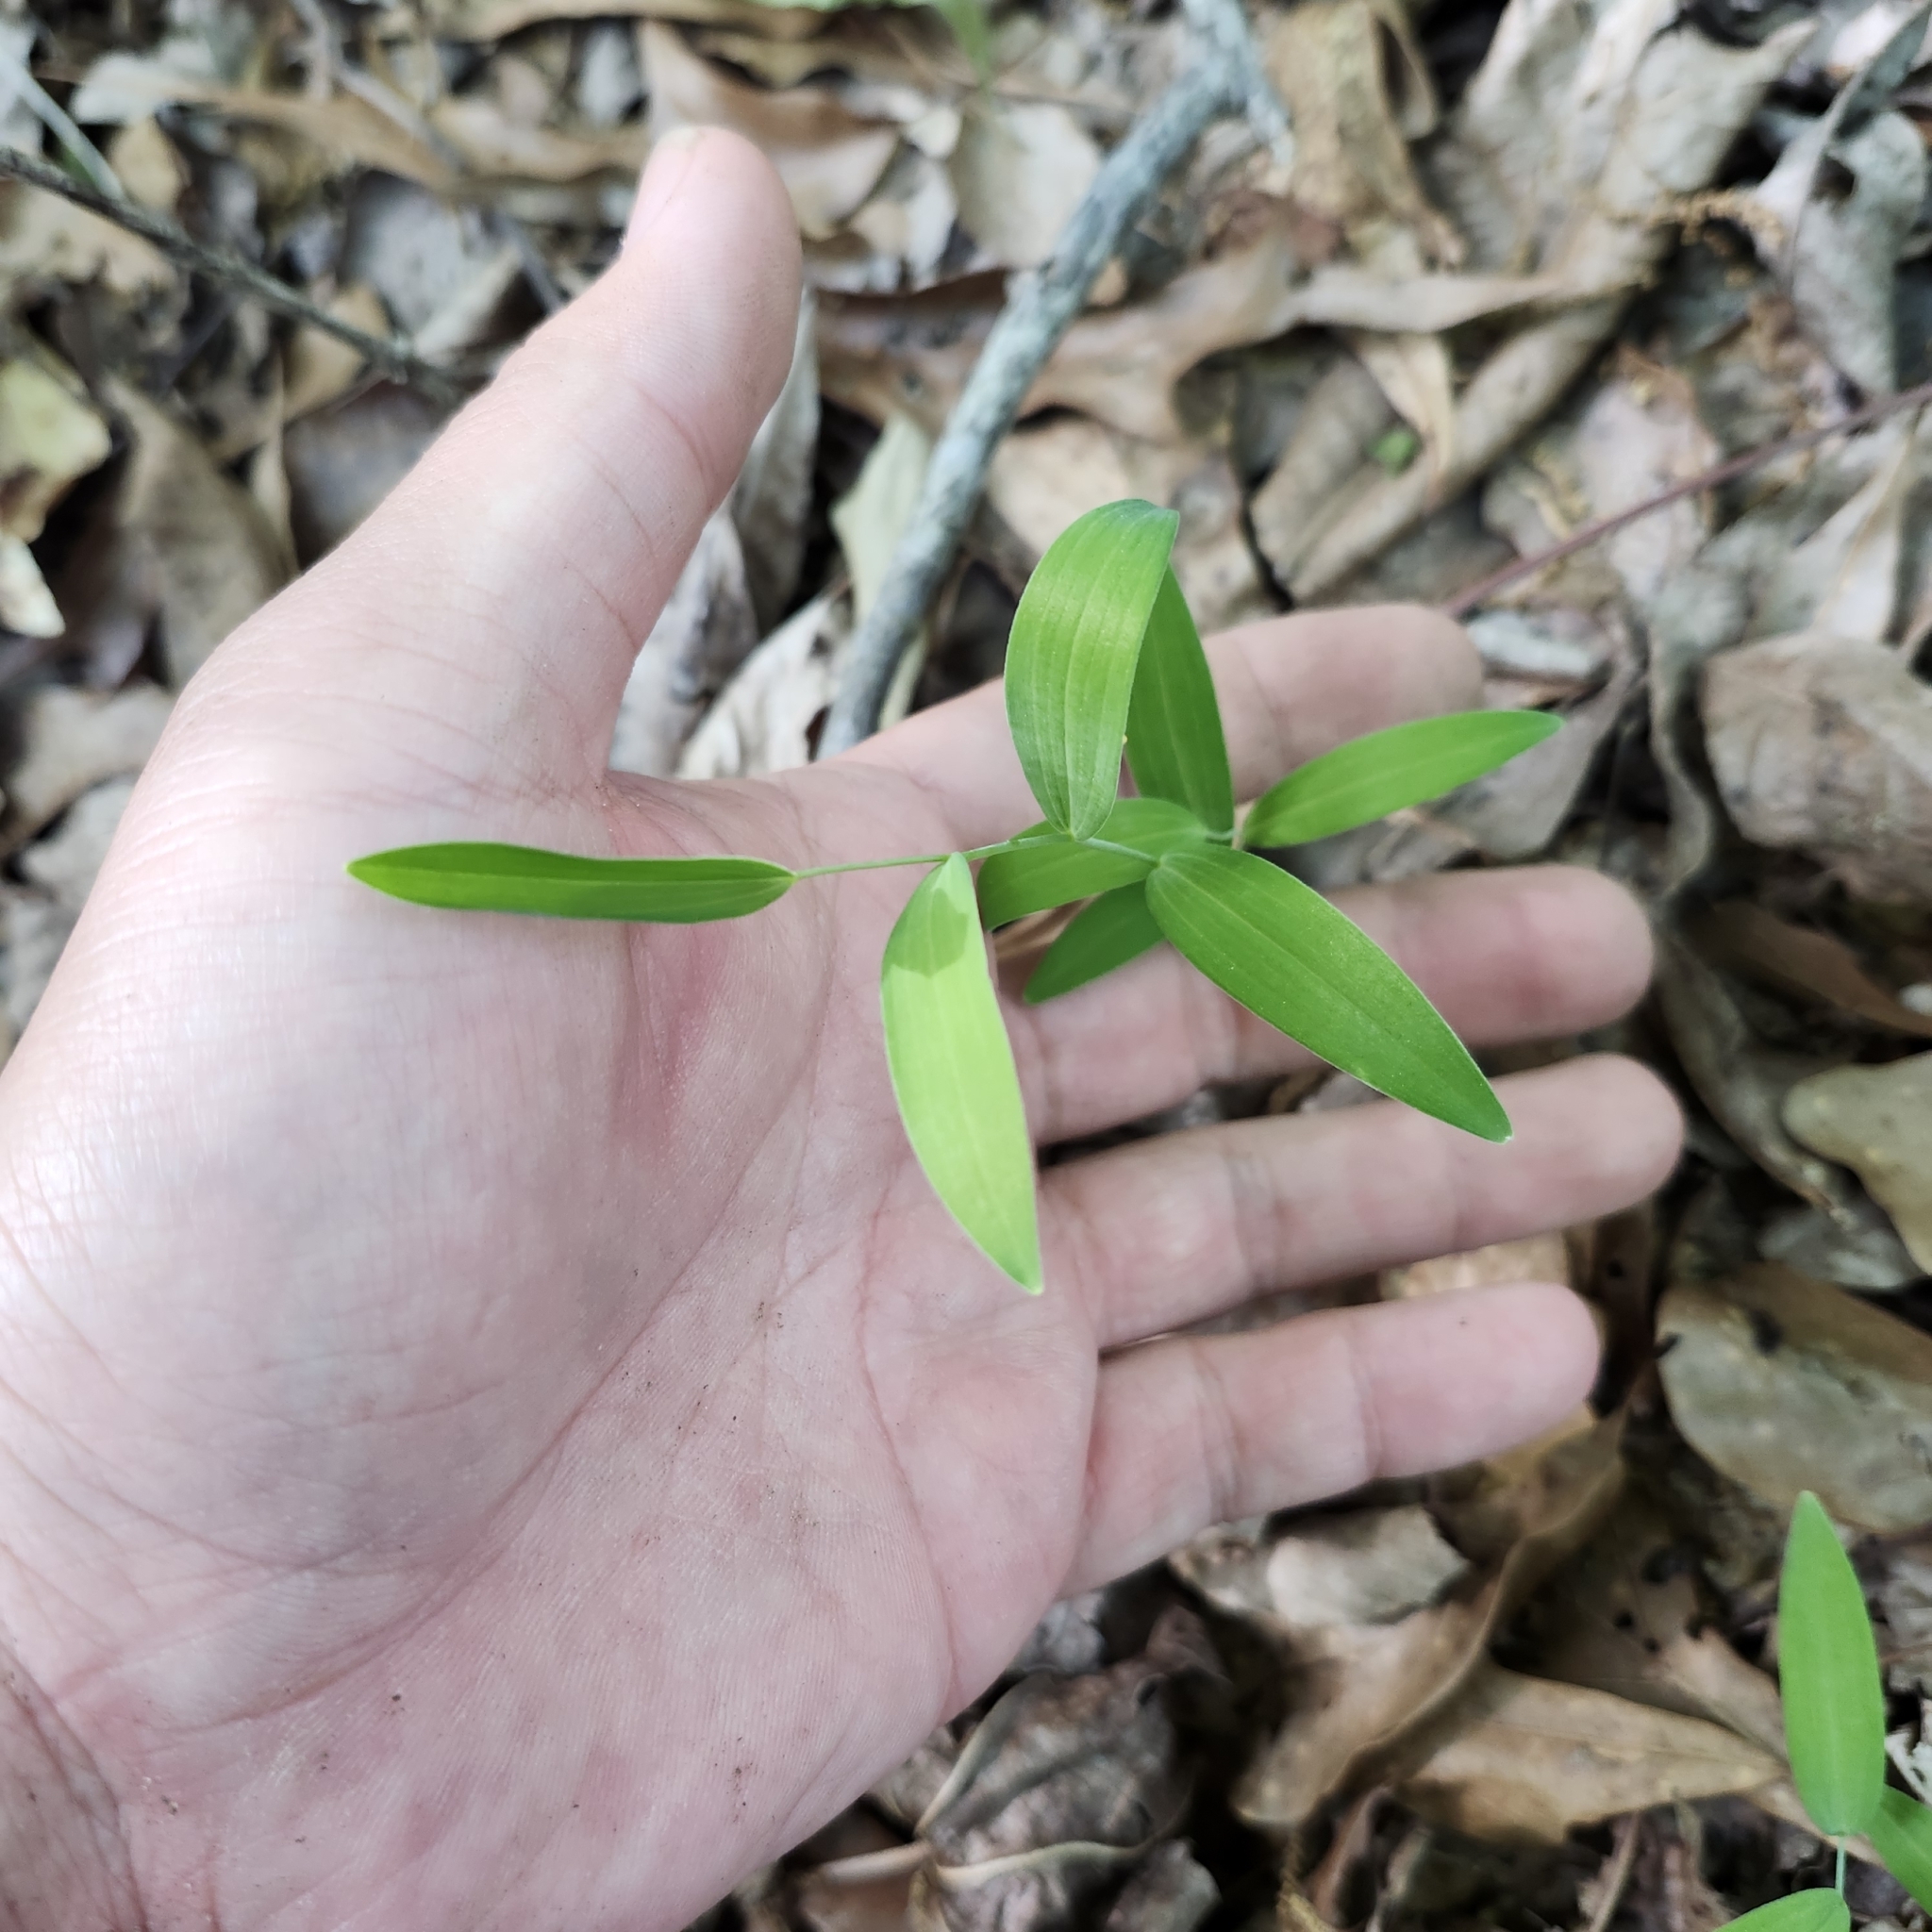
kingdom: Plantae
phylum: Tracheophyta
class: Liliopsida
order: Asparagales
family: Asparagaceae
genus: Polygonatum
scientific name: Polygonatum biflorum
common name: American solomon's-seal
